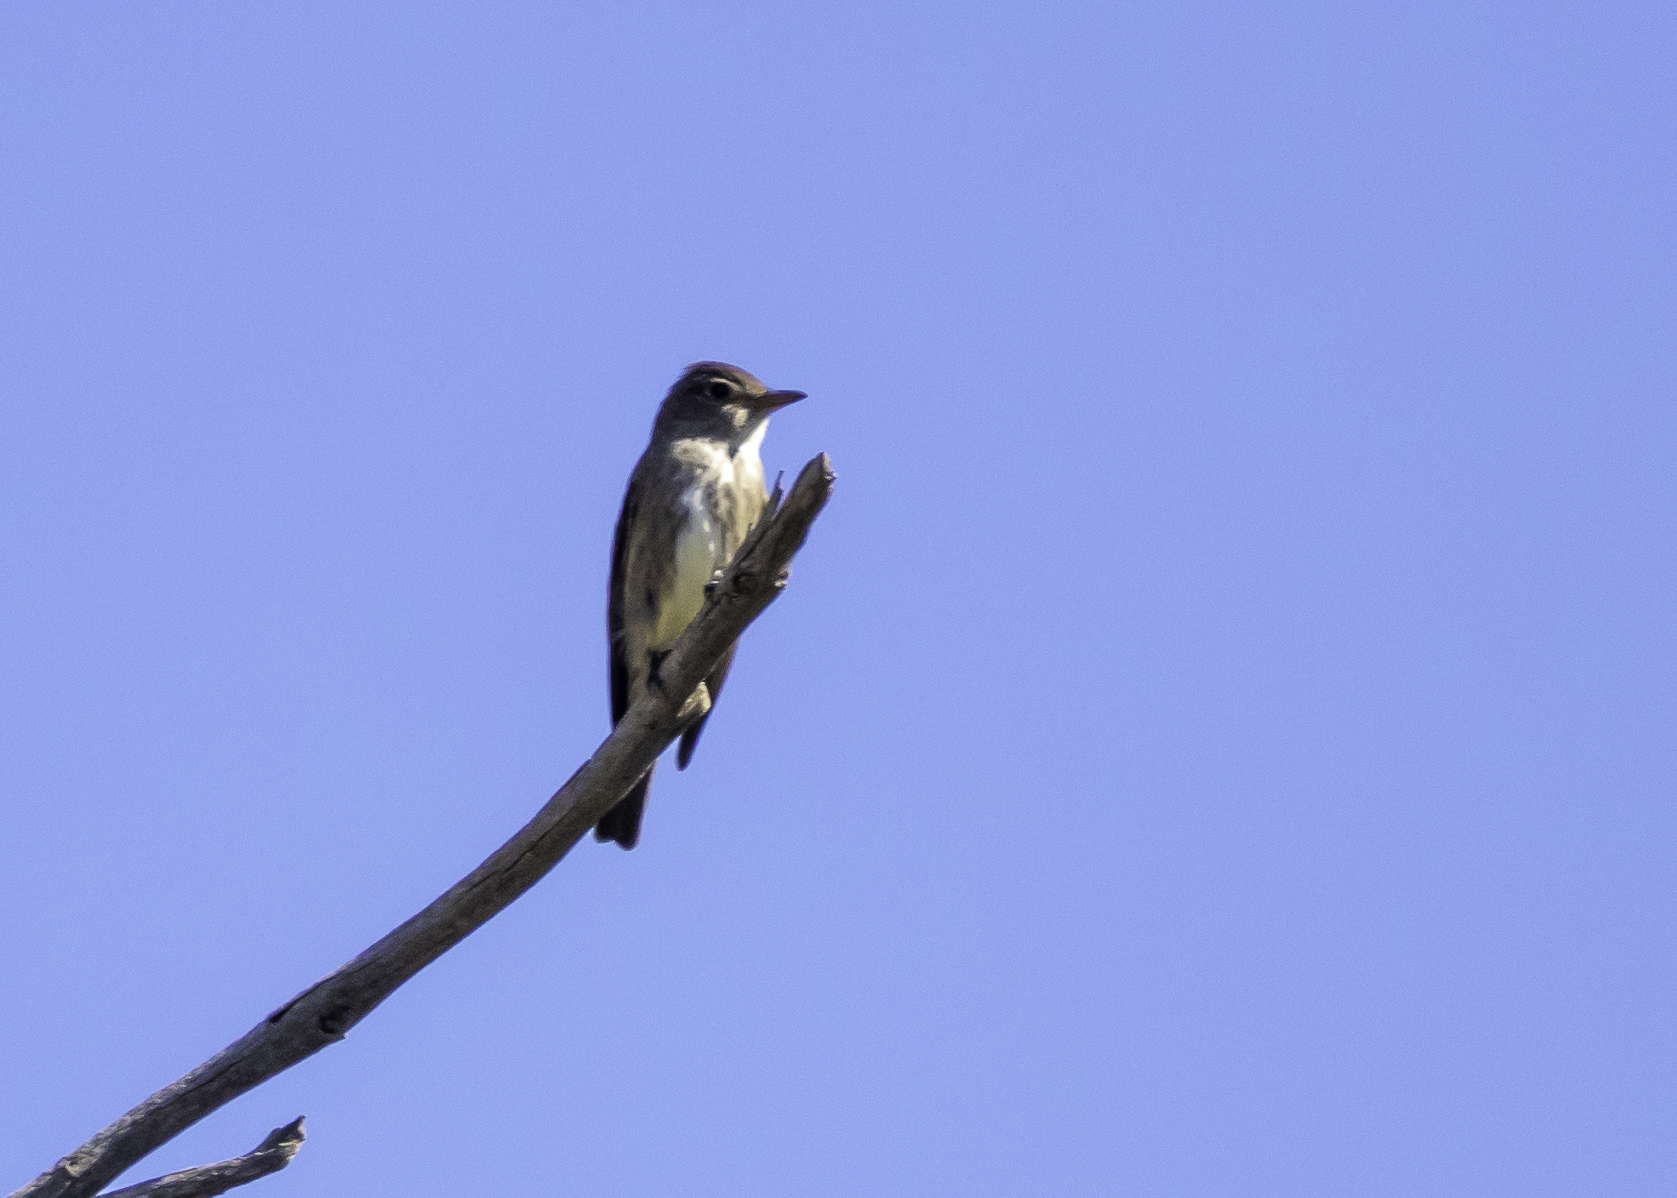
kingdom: Animalia
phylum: Chordata
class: Aves
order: Passeriformes
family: Tyrannidae
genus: Contopus
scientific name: Contopus cooperi
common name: Olive-sided flycatcher
